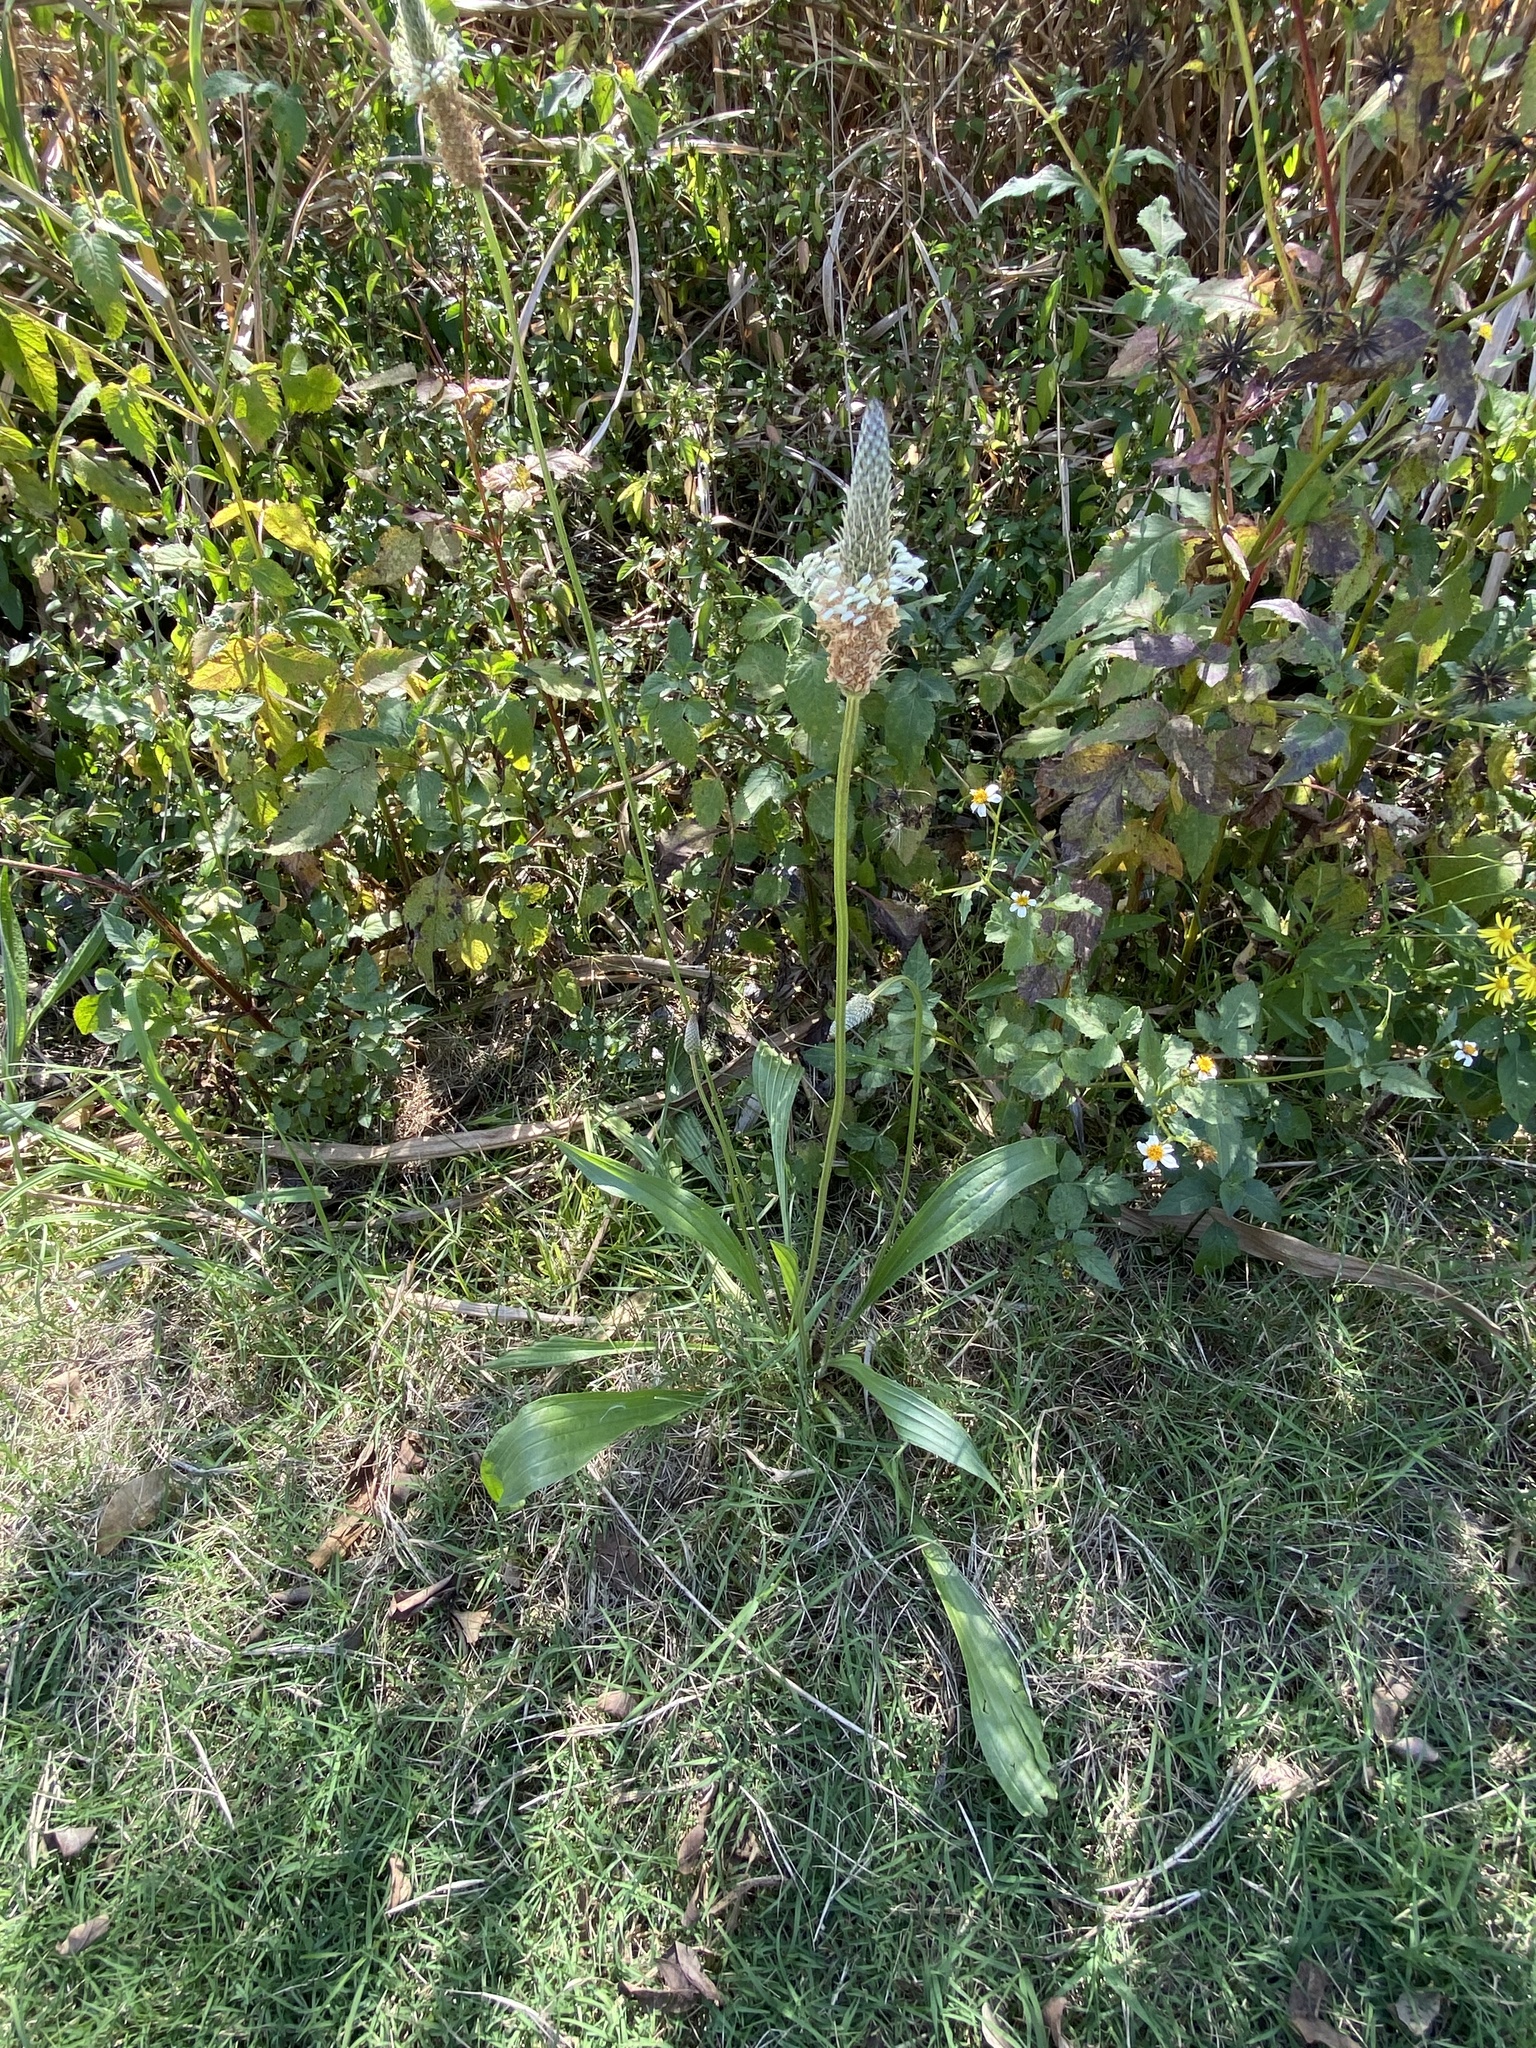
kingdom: Plantae
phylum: Tracheophyta
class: Magnoliopsida
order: Lamiales
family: Plantaginaceae
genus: Plantago
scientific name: Plantago lanceolata
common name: Ribwort plantain
